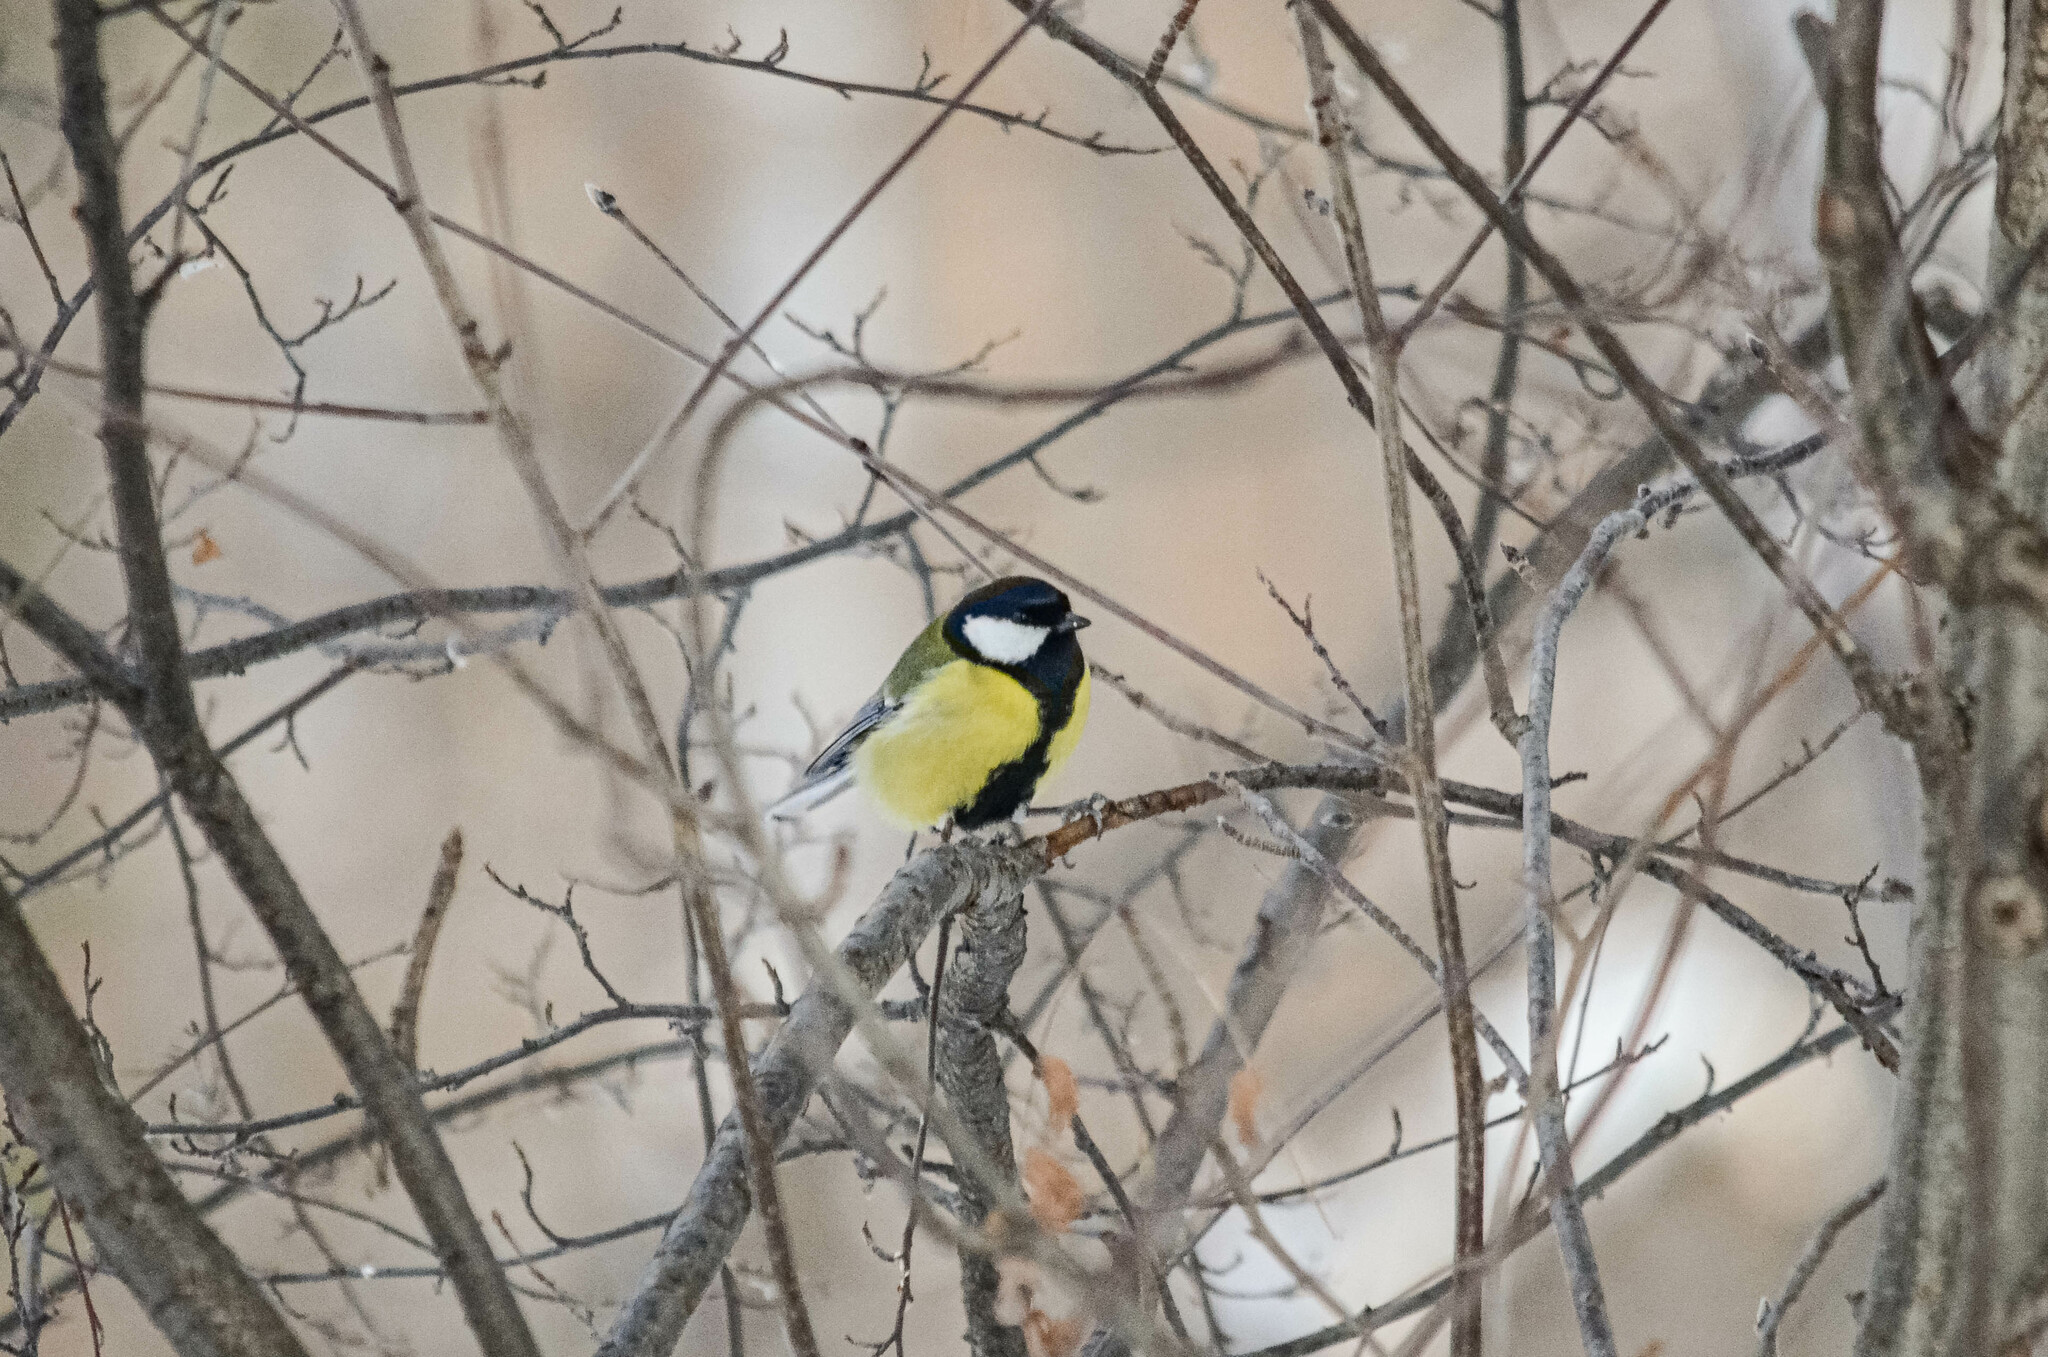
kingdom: Animalia
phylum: Chordata
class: Aves
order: Passeriformes
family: Paridae
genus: Parus
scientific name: Parus major
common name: Great tit
